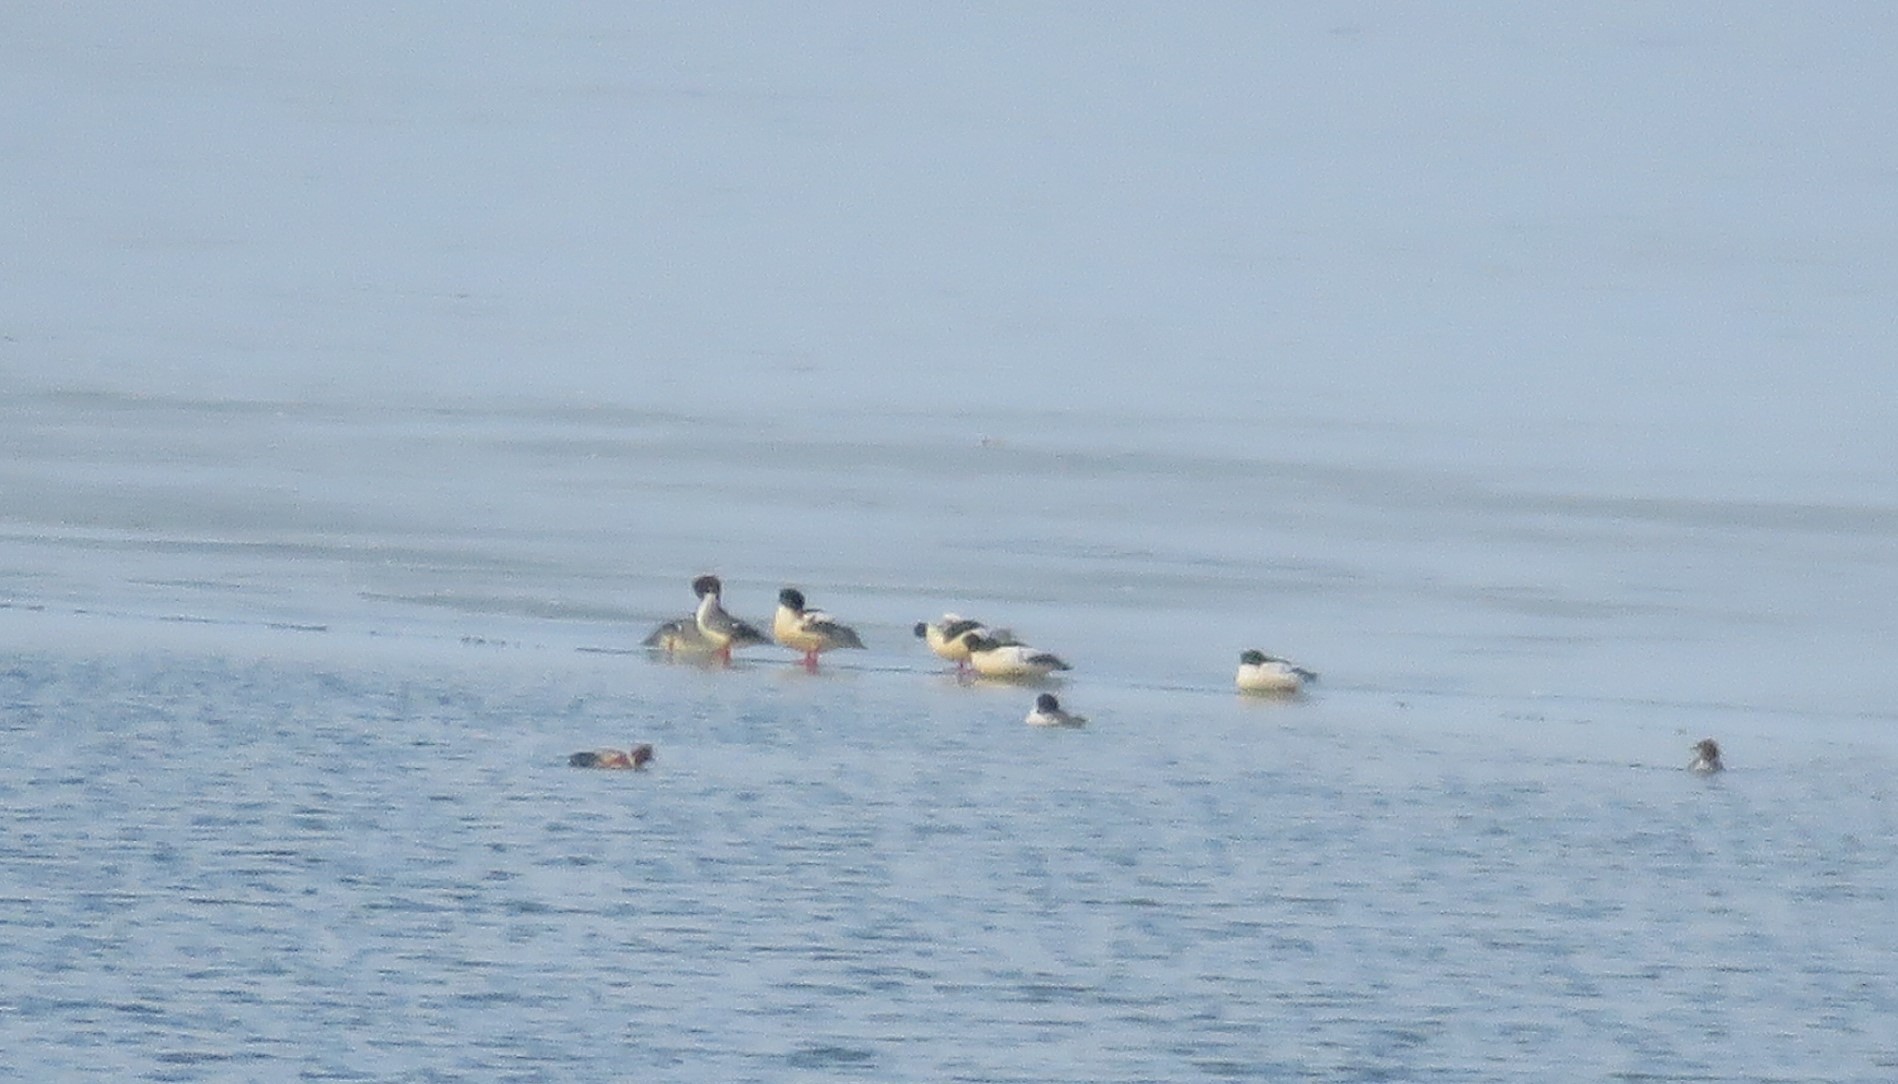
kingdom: Animalia
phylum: Chordata
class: Aves
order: Anseriformes
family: Anatidae
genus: Mergus
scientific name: Mergus merganser
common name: Common merganser
